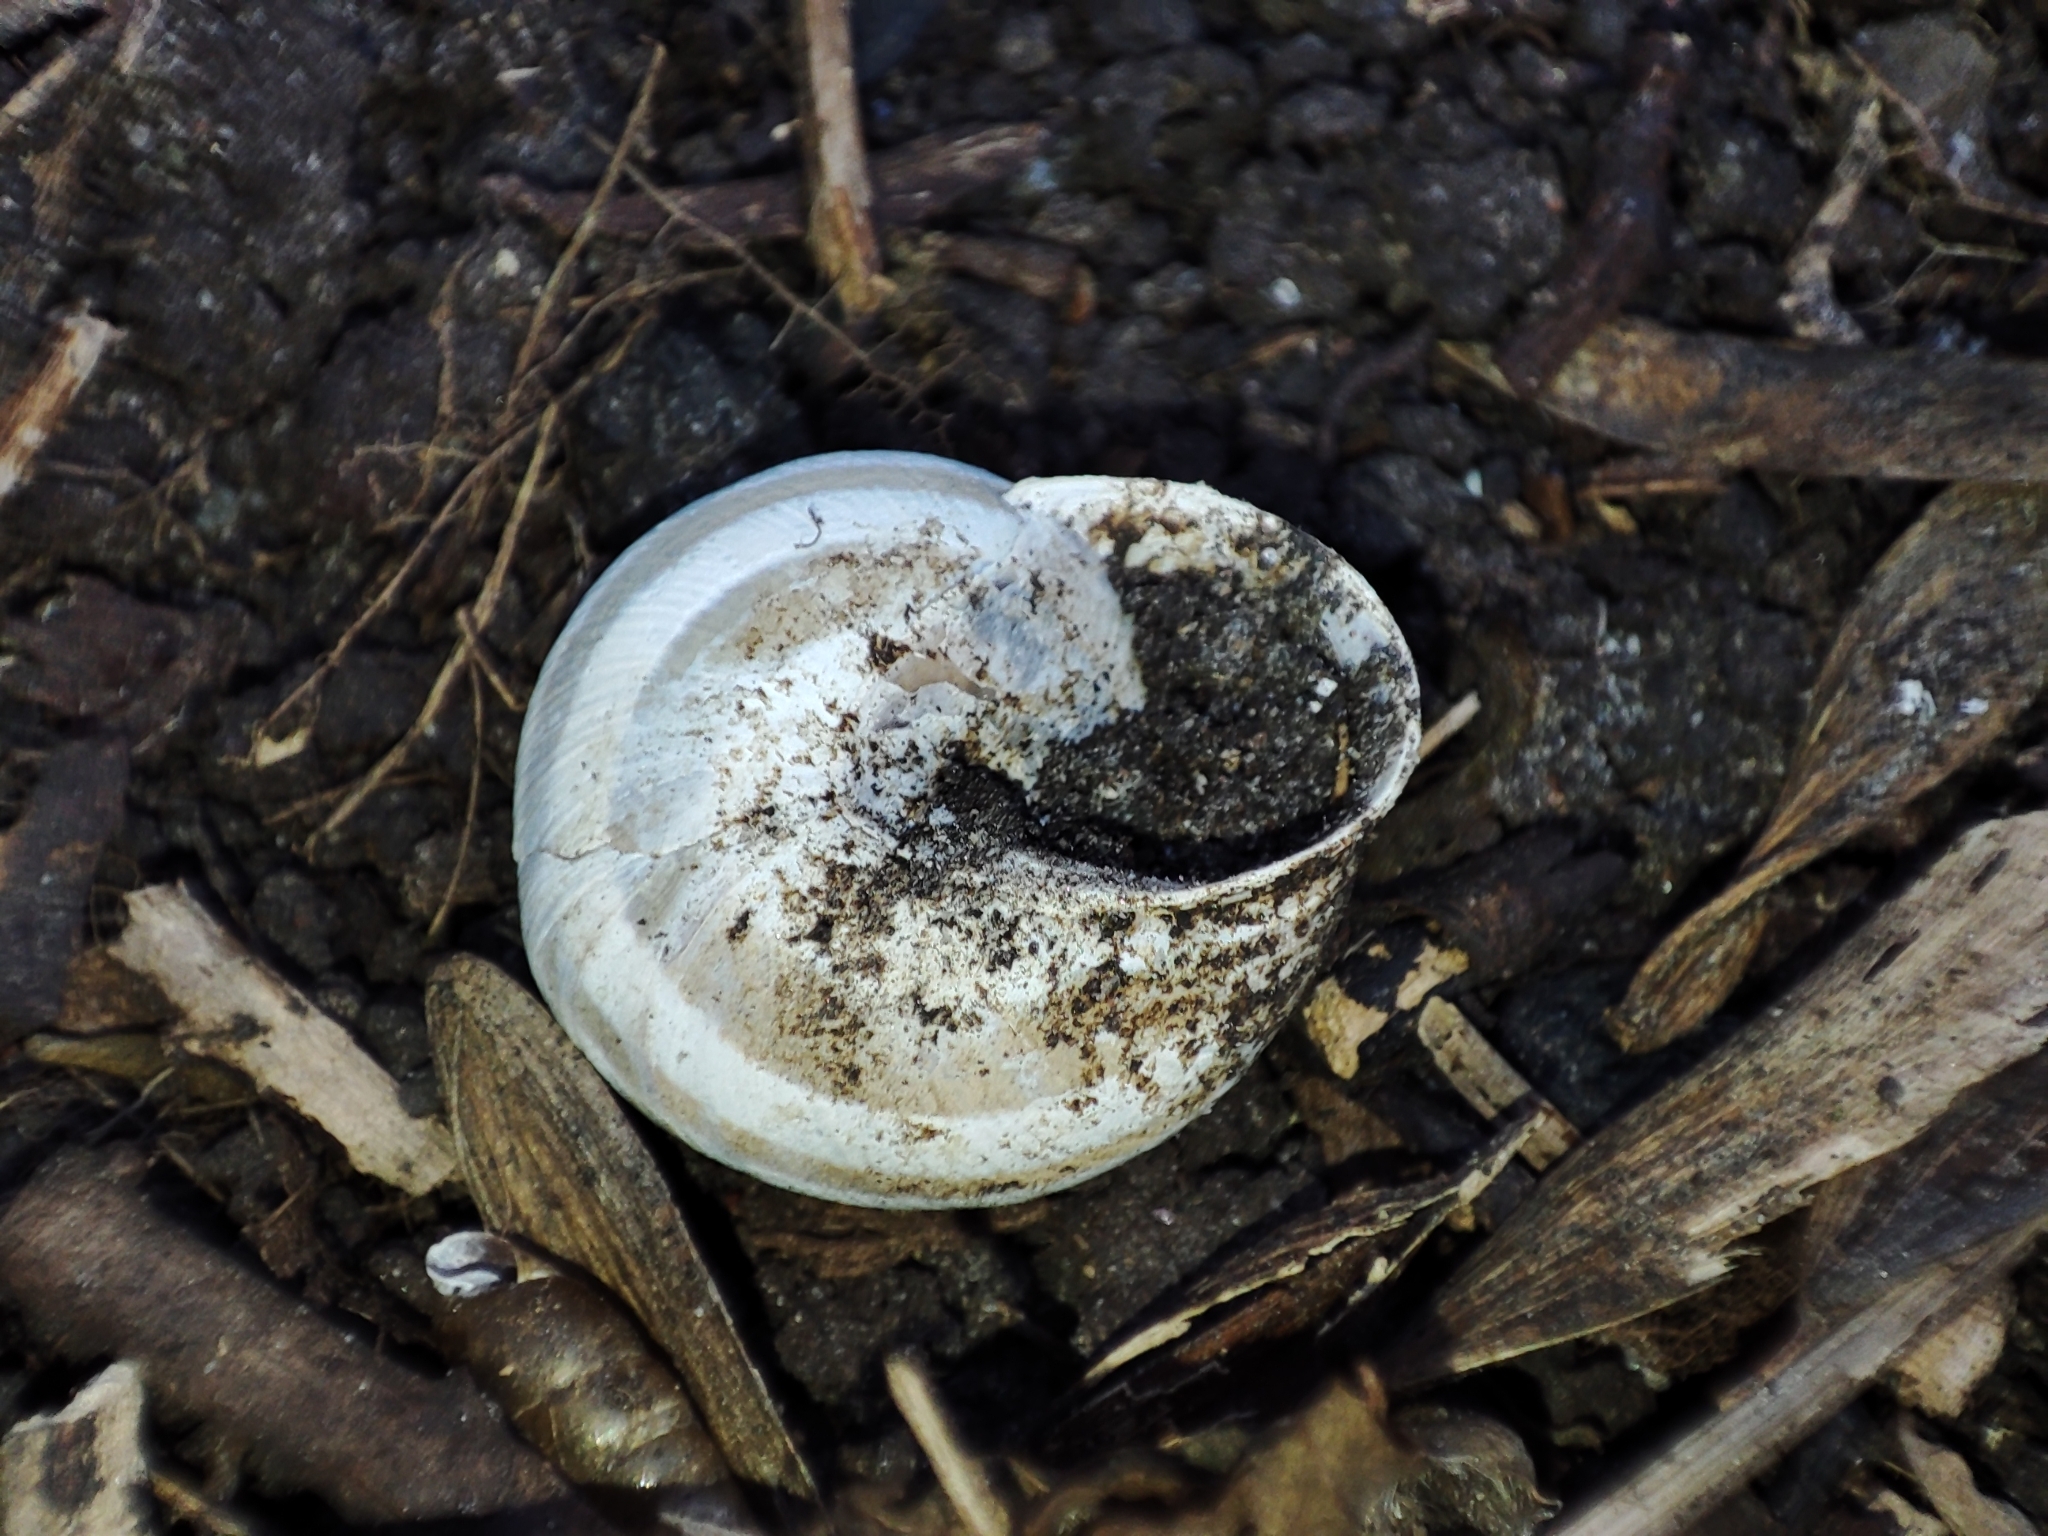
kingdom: Animalia
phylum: Mollusca
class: Gastropoda
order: Stylommatophora
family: Helicidae
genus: Caucasotachea
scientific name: Caucasotachea vindobonensis
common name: European helicid land snail
